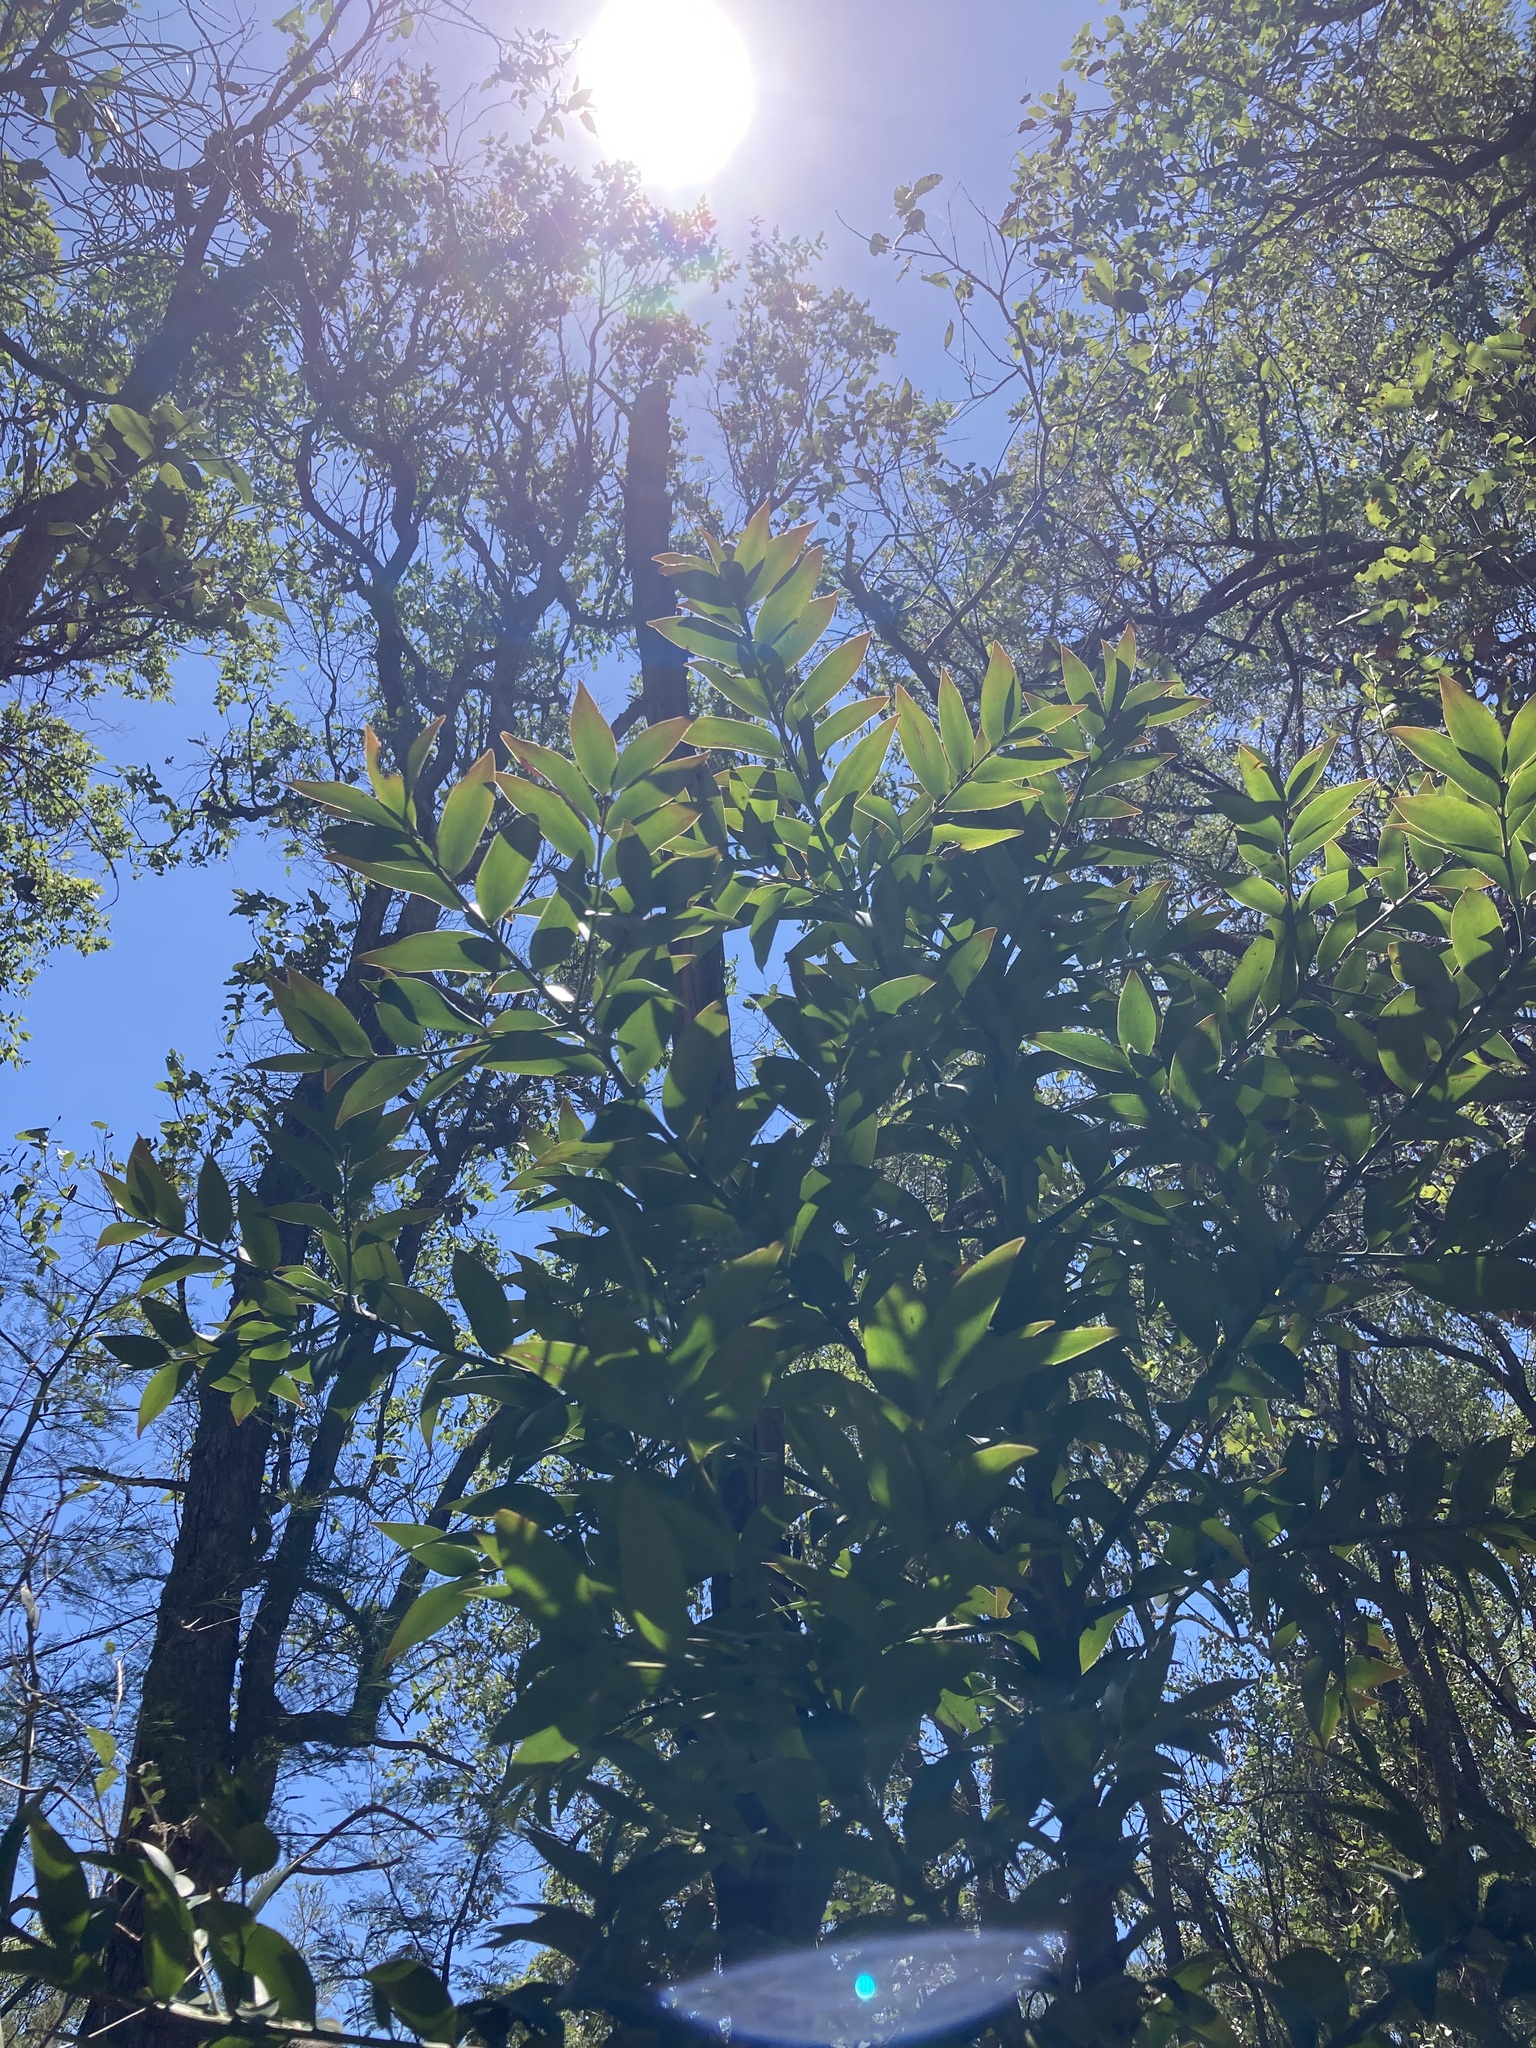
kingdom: Plantae
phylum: Tracheophyta
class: Pinopsida
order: Pinales
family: Araucariaceae
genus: Agathis
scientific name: Agathis robusta
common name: Australian-kauri
